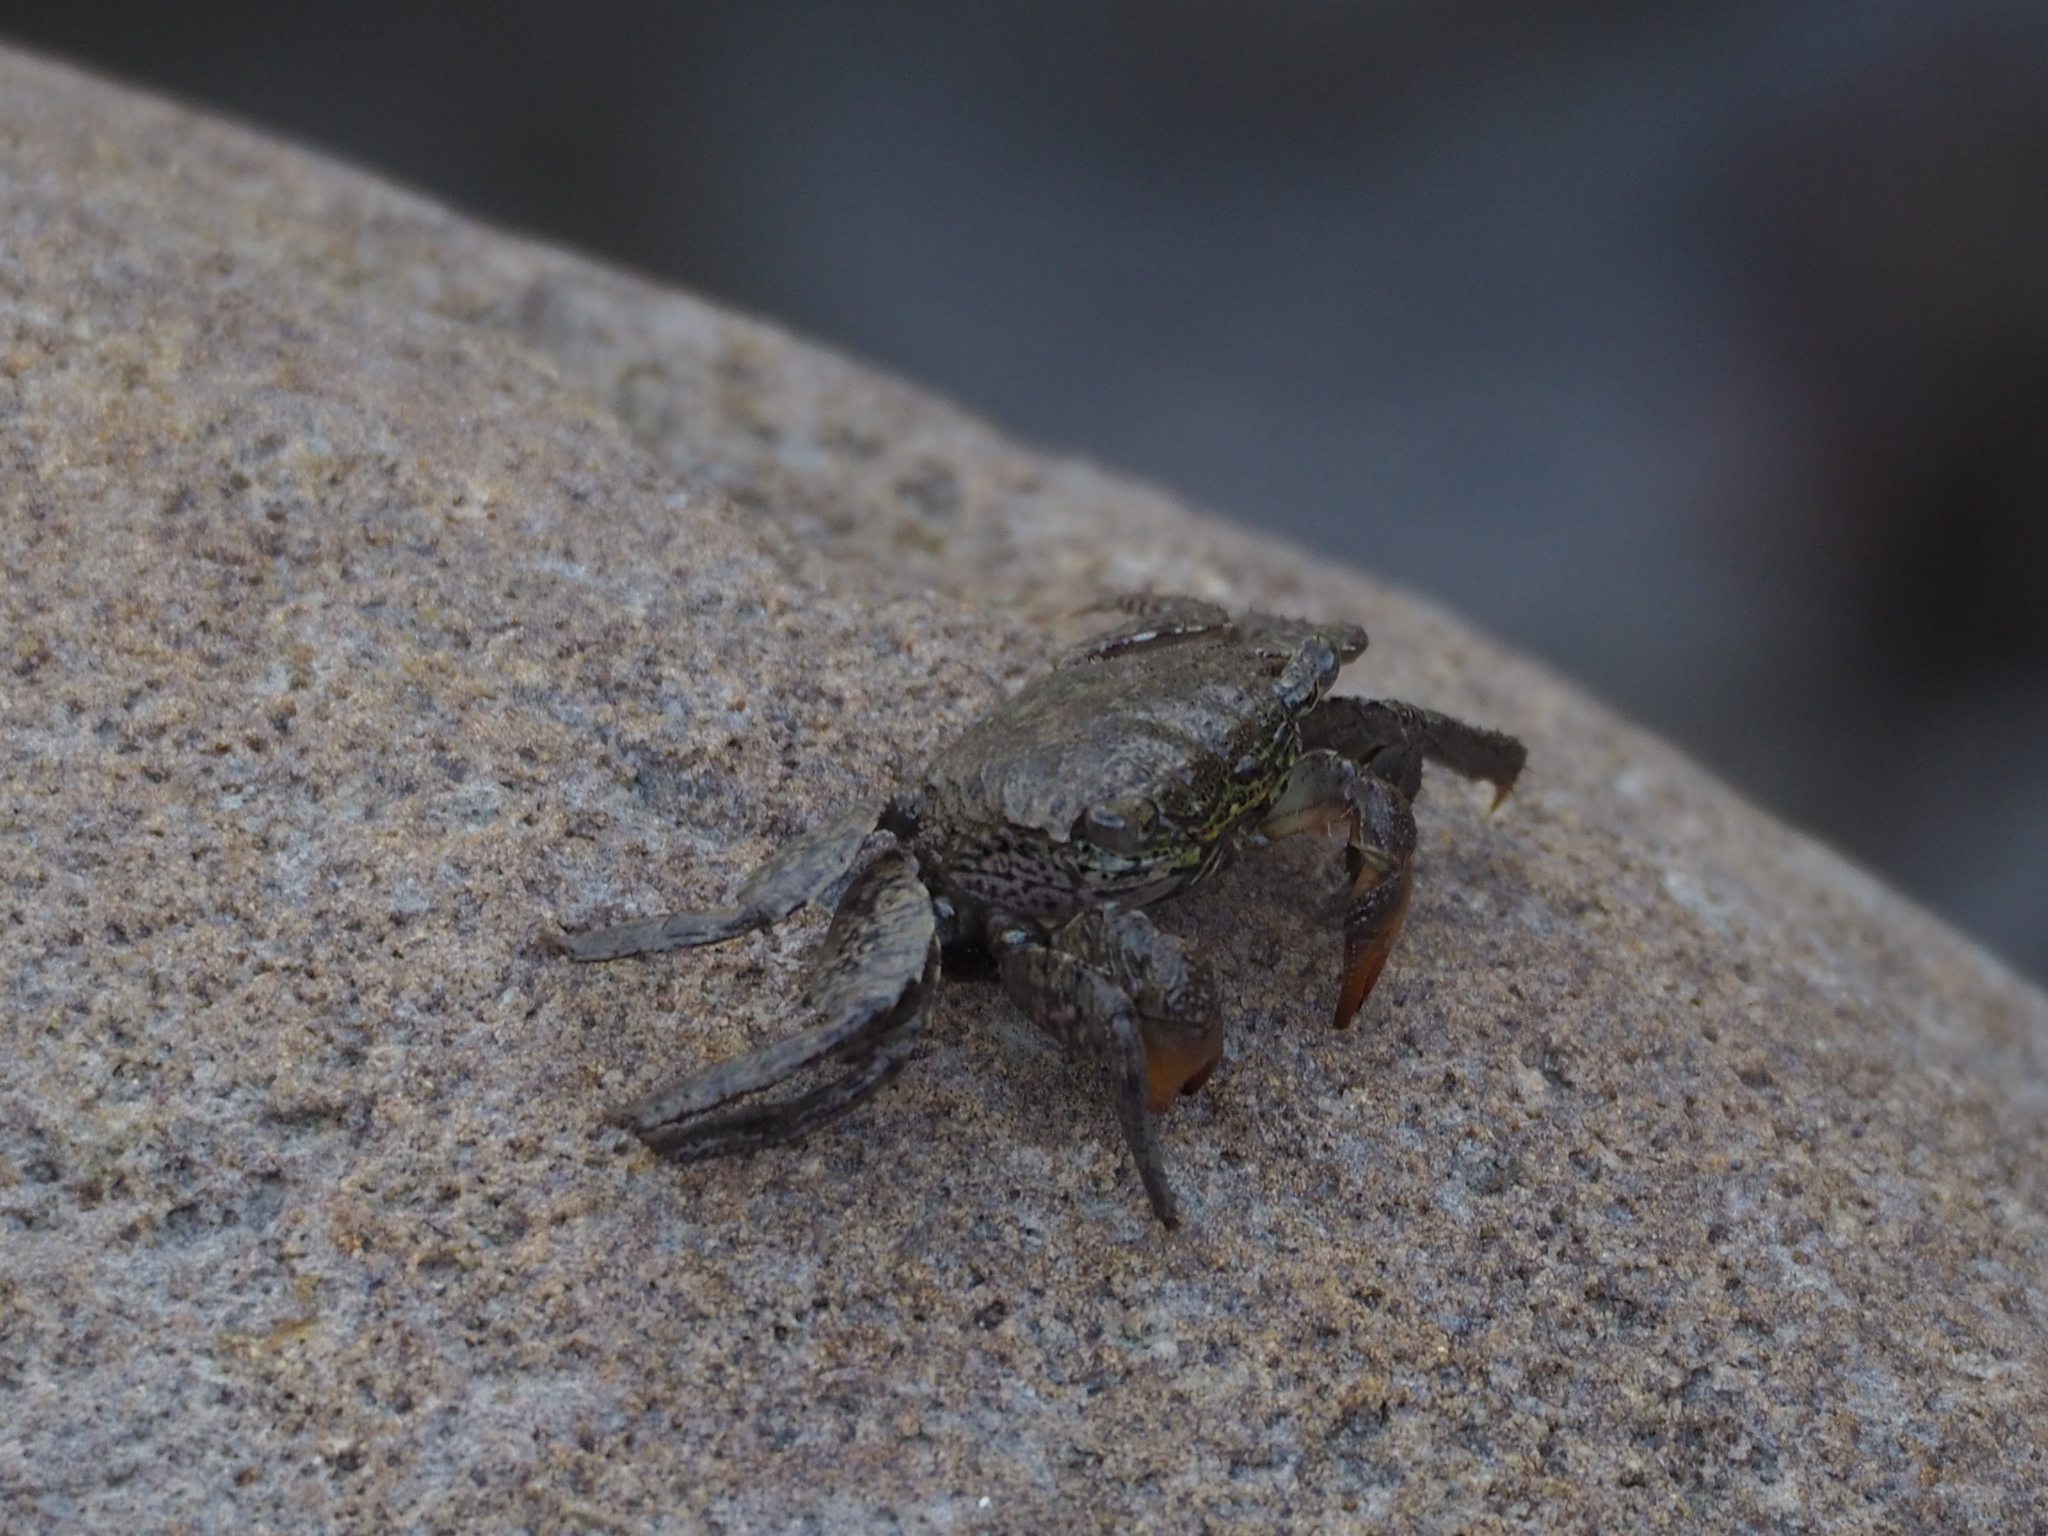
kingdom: Animalia
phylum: Arthropoda
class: Malacostraca
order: Decapoda
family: Sesarmidae
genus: Parasesarma
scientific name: Parasesarma bidens
